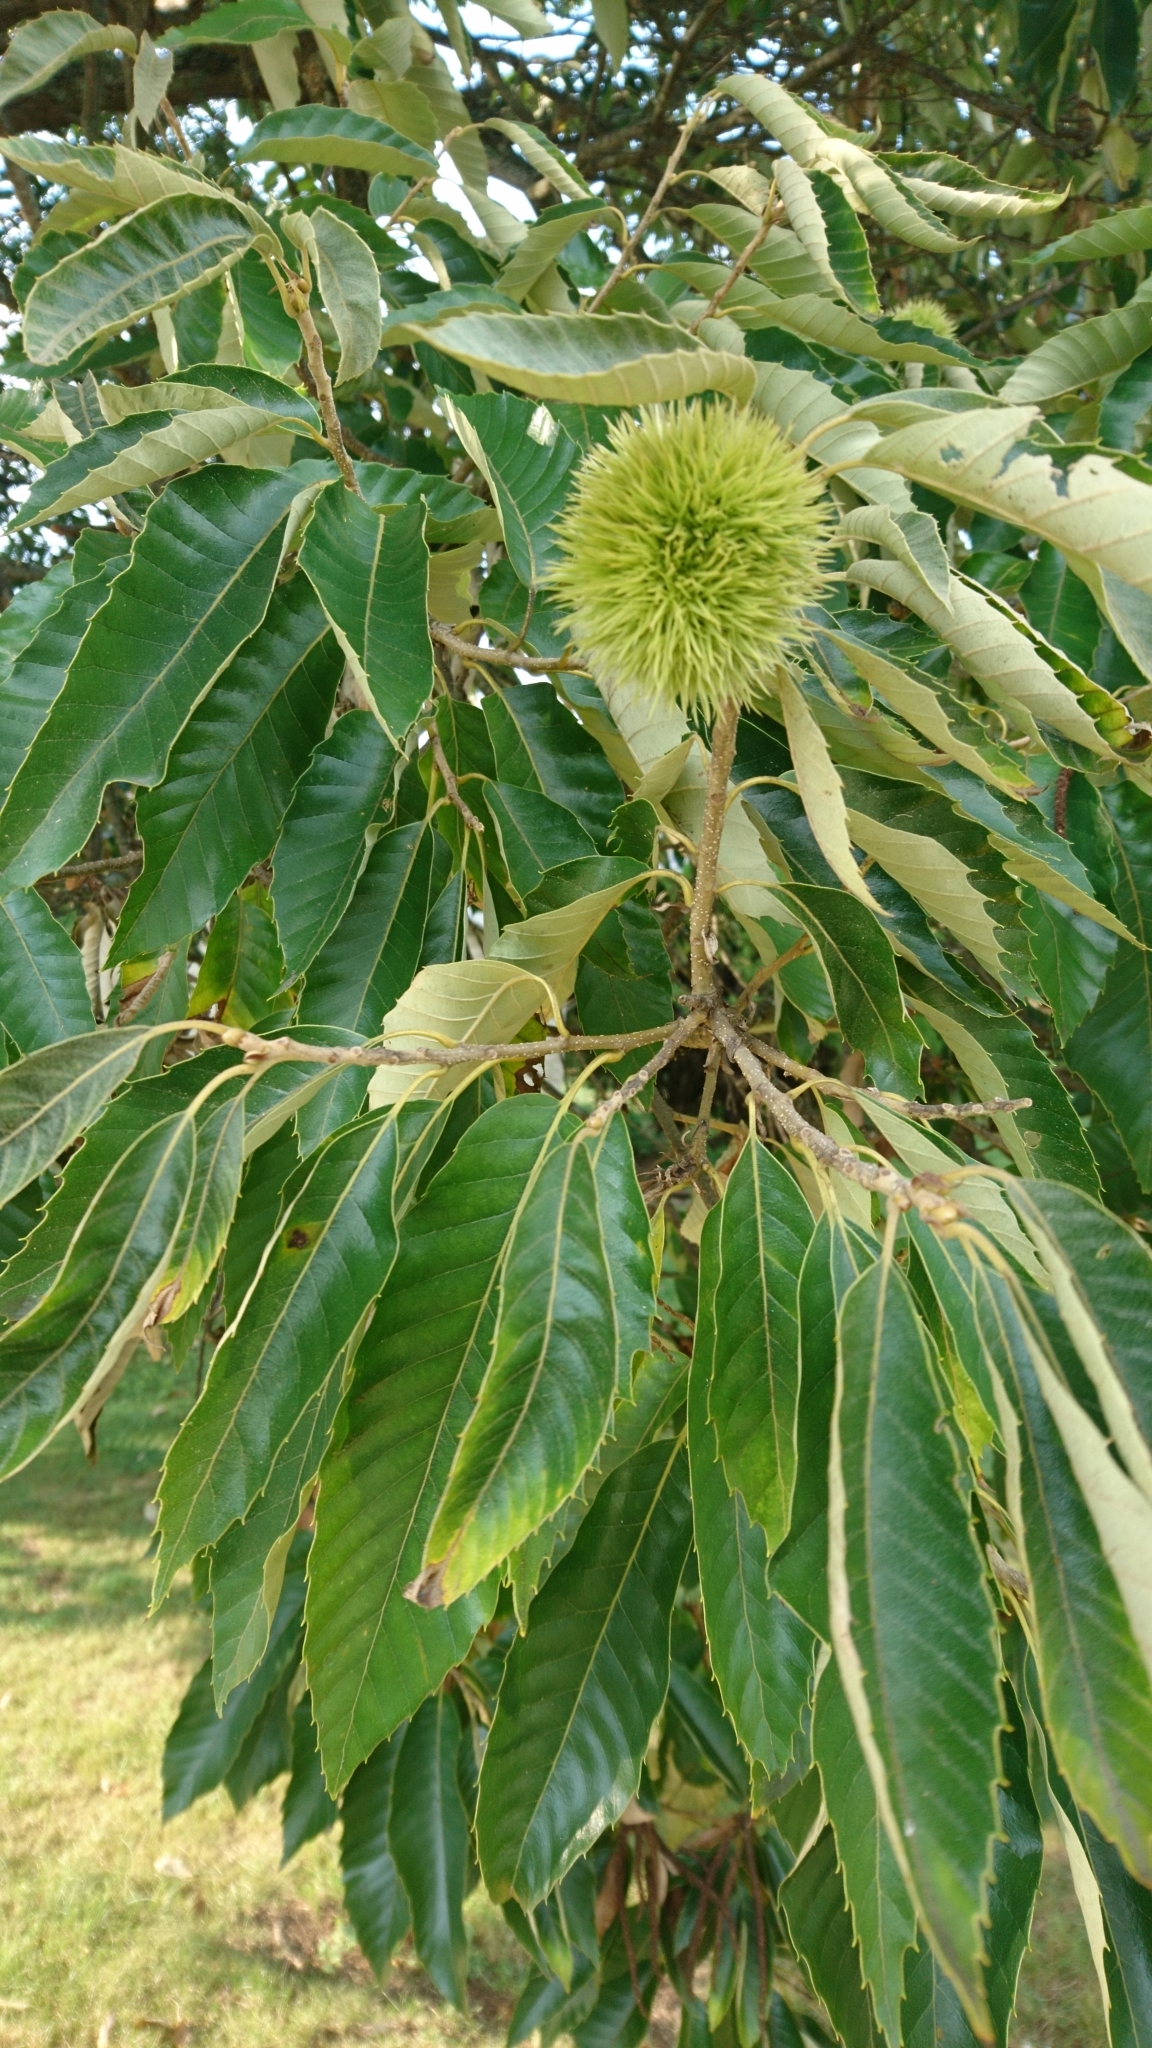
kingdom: Plantae
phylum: Tracheophyta
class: Magnoliopsida
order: Fagales
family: Fagaceae
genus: Castanea
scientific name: Castanea mollissima
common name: Chinese chestnut
